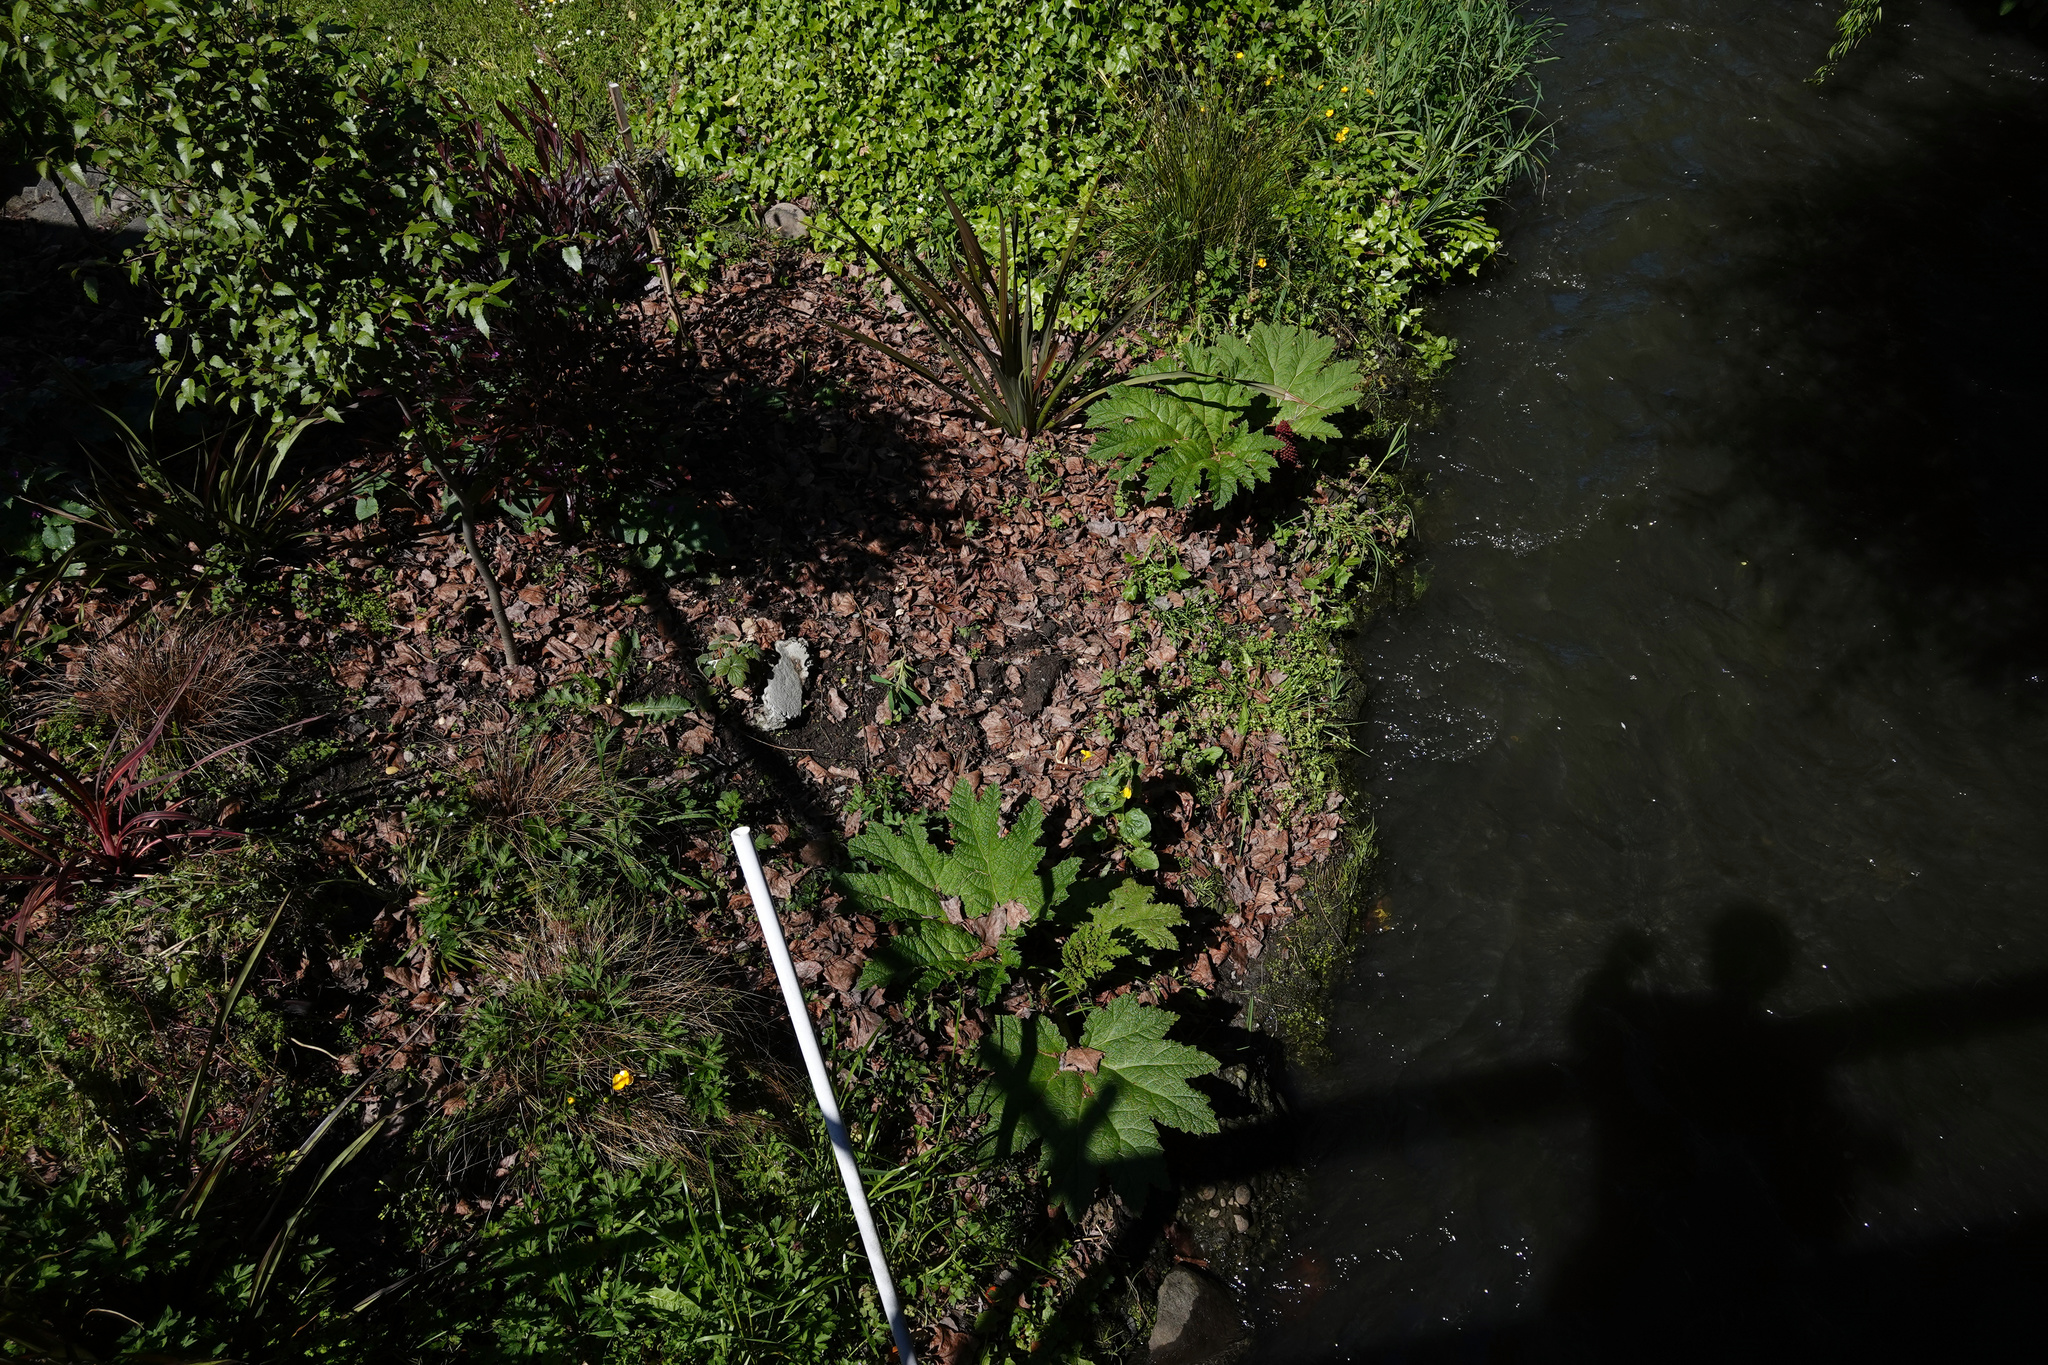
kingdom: Plantae
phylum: Tracheophyta
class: Magnoliopsida
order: Gunnerales
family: Gunneraceae
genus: Gunnera
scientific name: Gunnera tinctoria
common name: Giant-rhubarb
